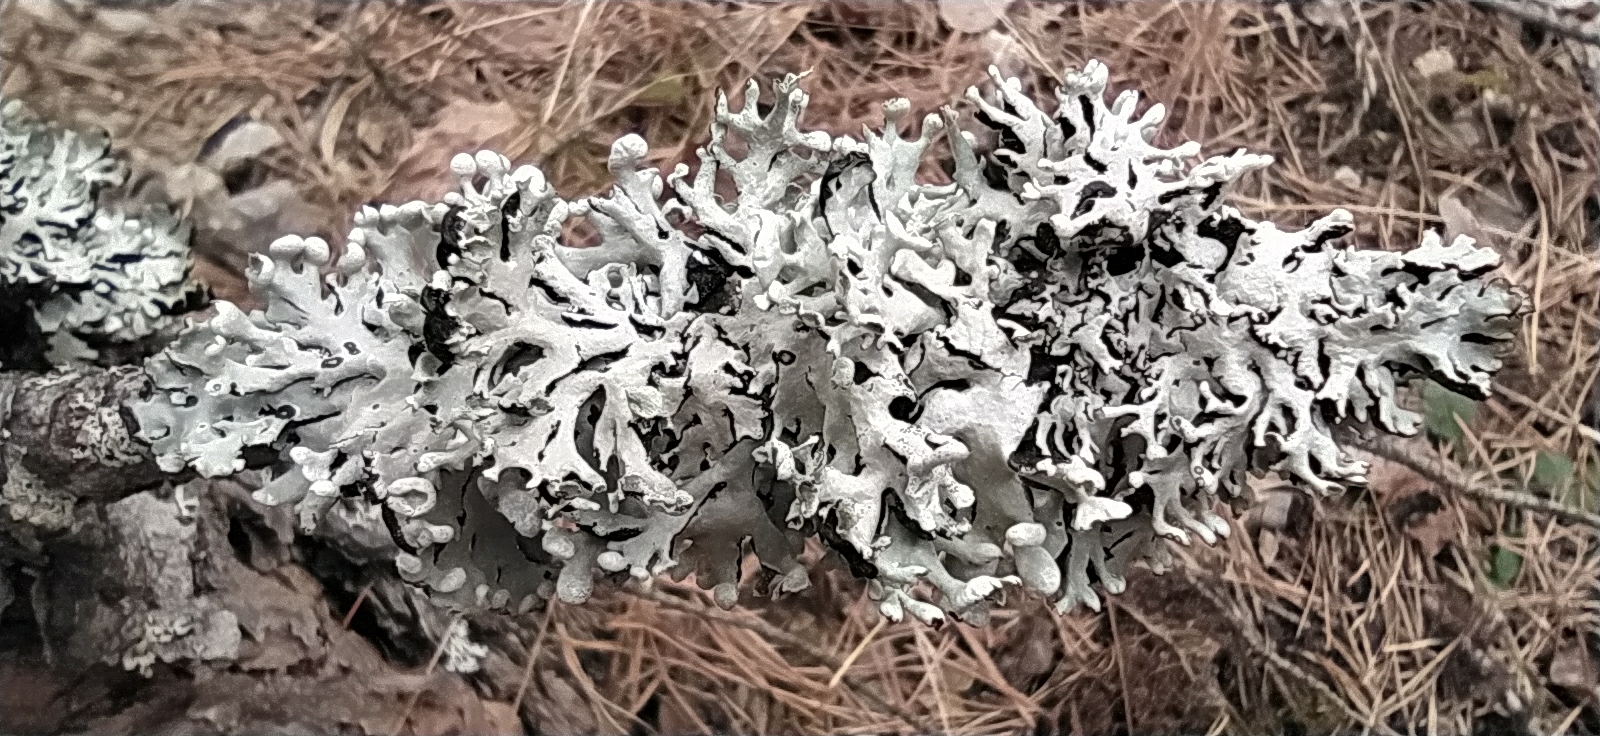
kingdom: Fungi
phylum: Ascomycota
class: Lecanoromycetes
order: Lecanorales
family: Parmeliaceae
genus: Hypogymnia
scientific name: Hypogymnia physodes
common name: Dark crottle
